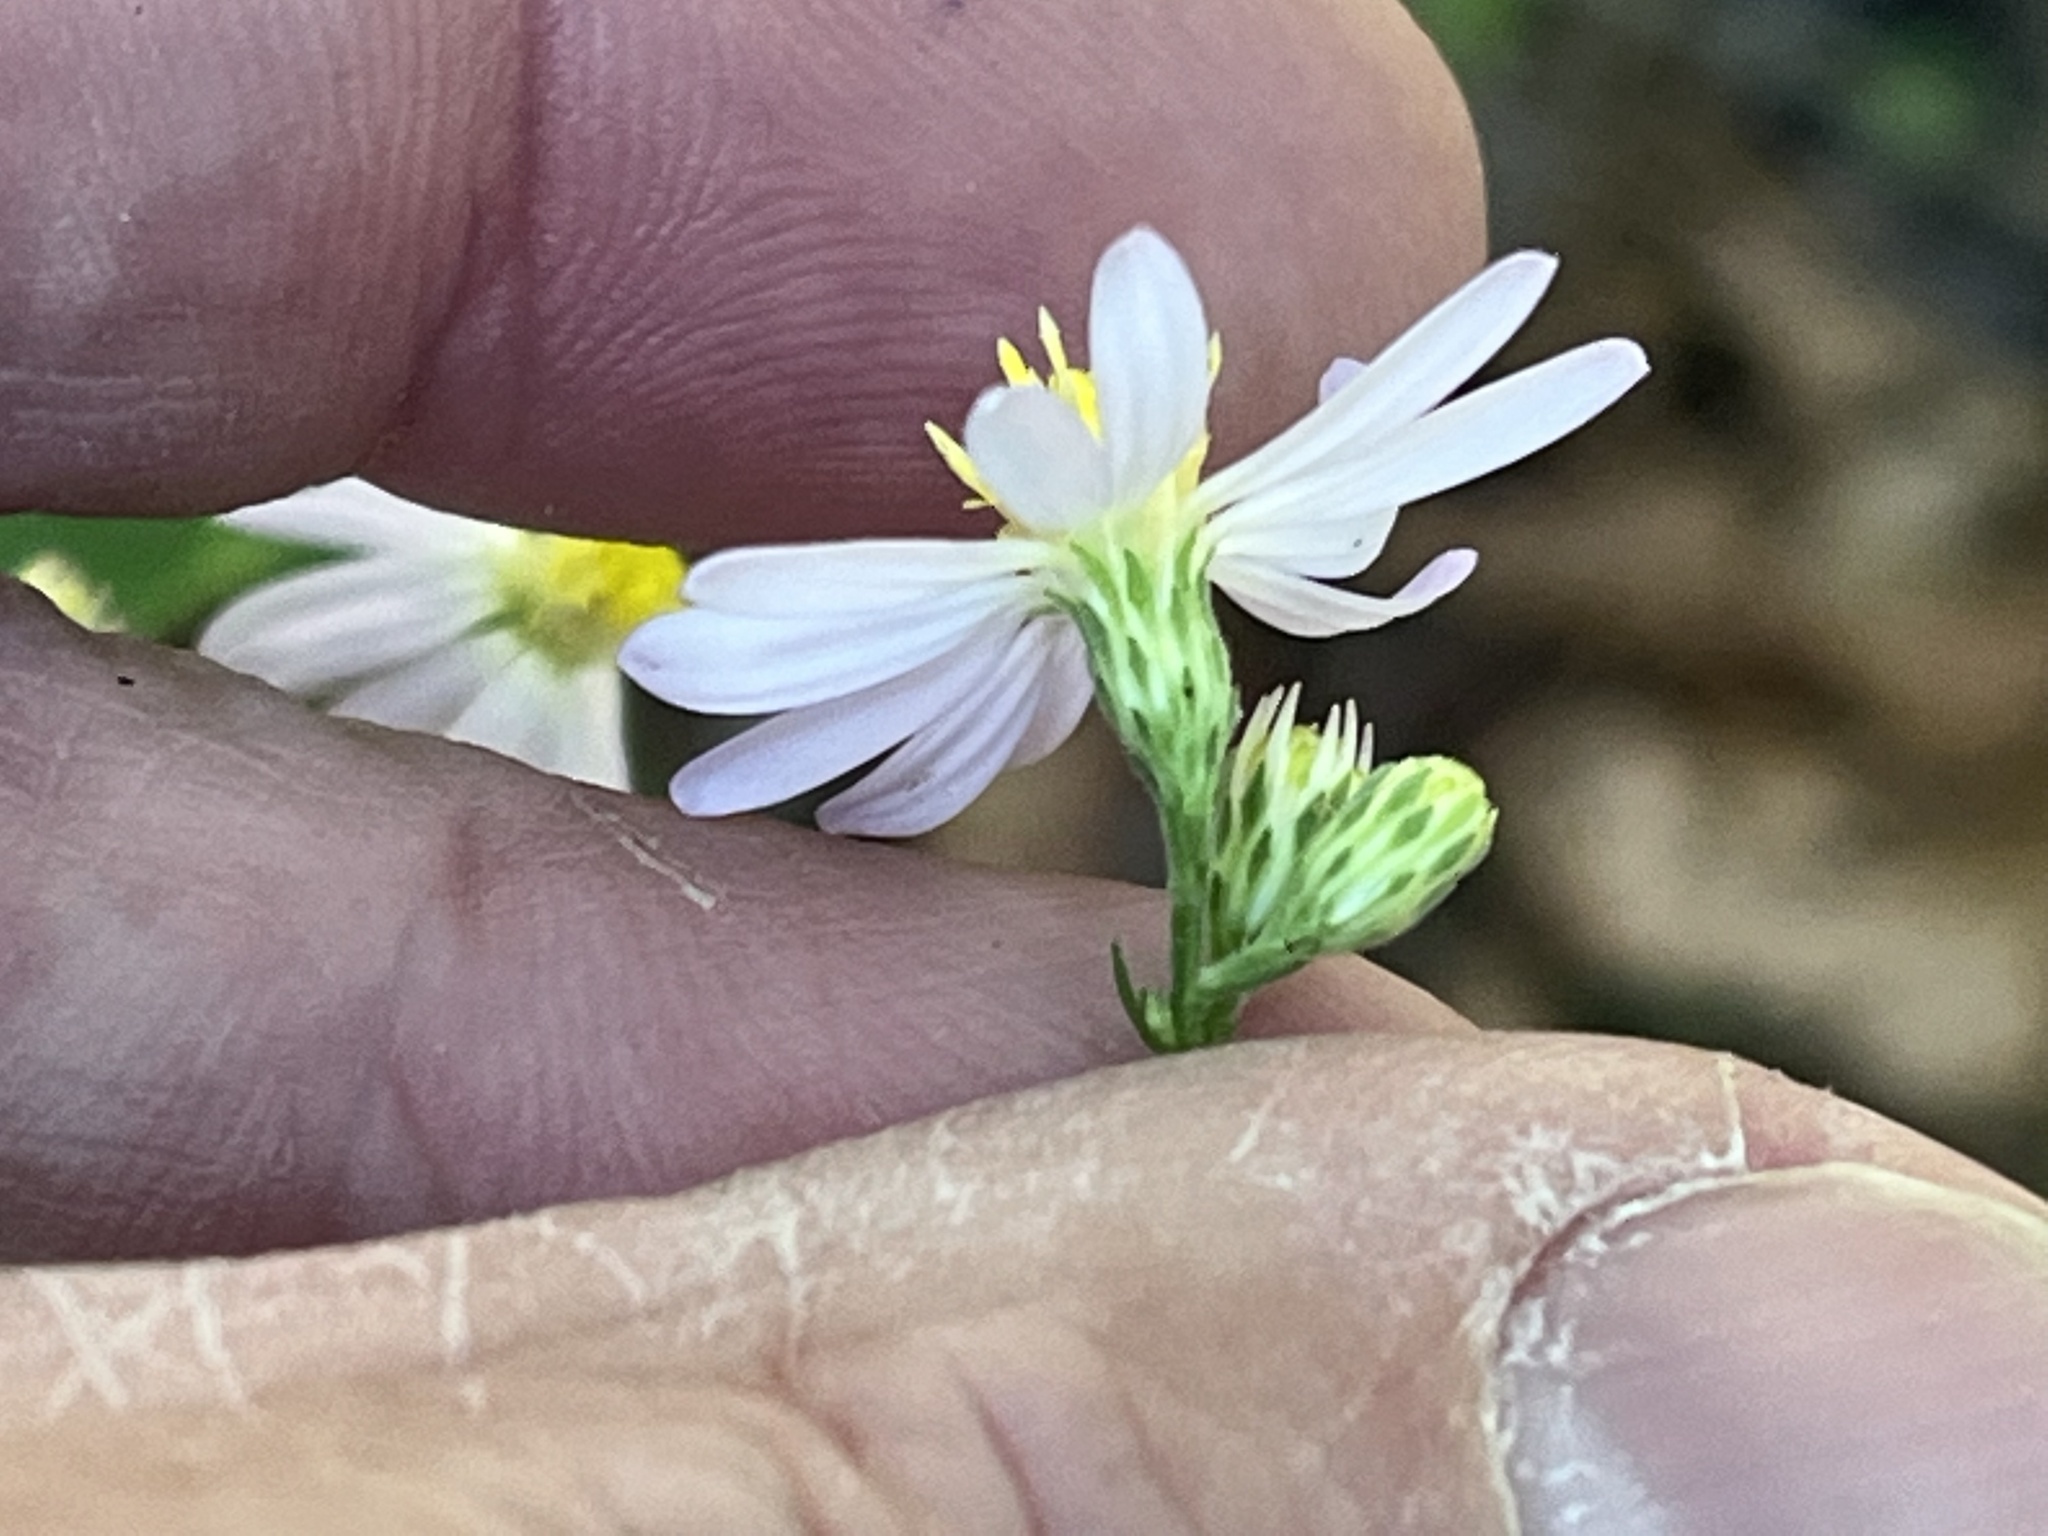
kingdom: Plantae
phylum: Tracheophyta
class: Magnoliopsida
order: Asterales
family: Asteraceae
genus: Symphyotrichum
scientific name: Symphyotrichum undulatum
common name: Clasping heart-leaf aster
